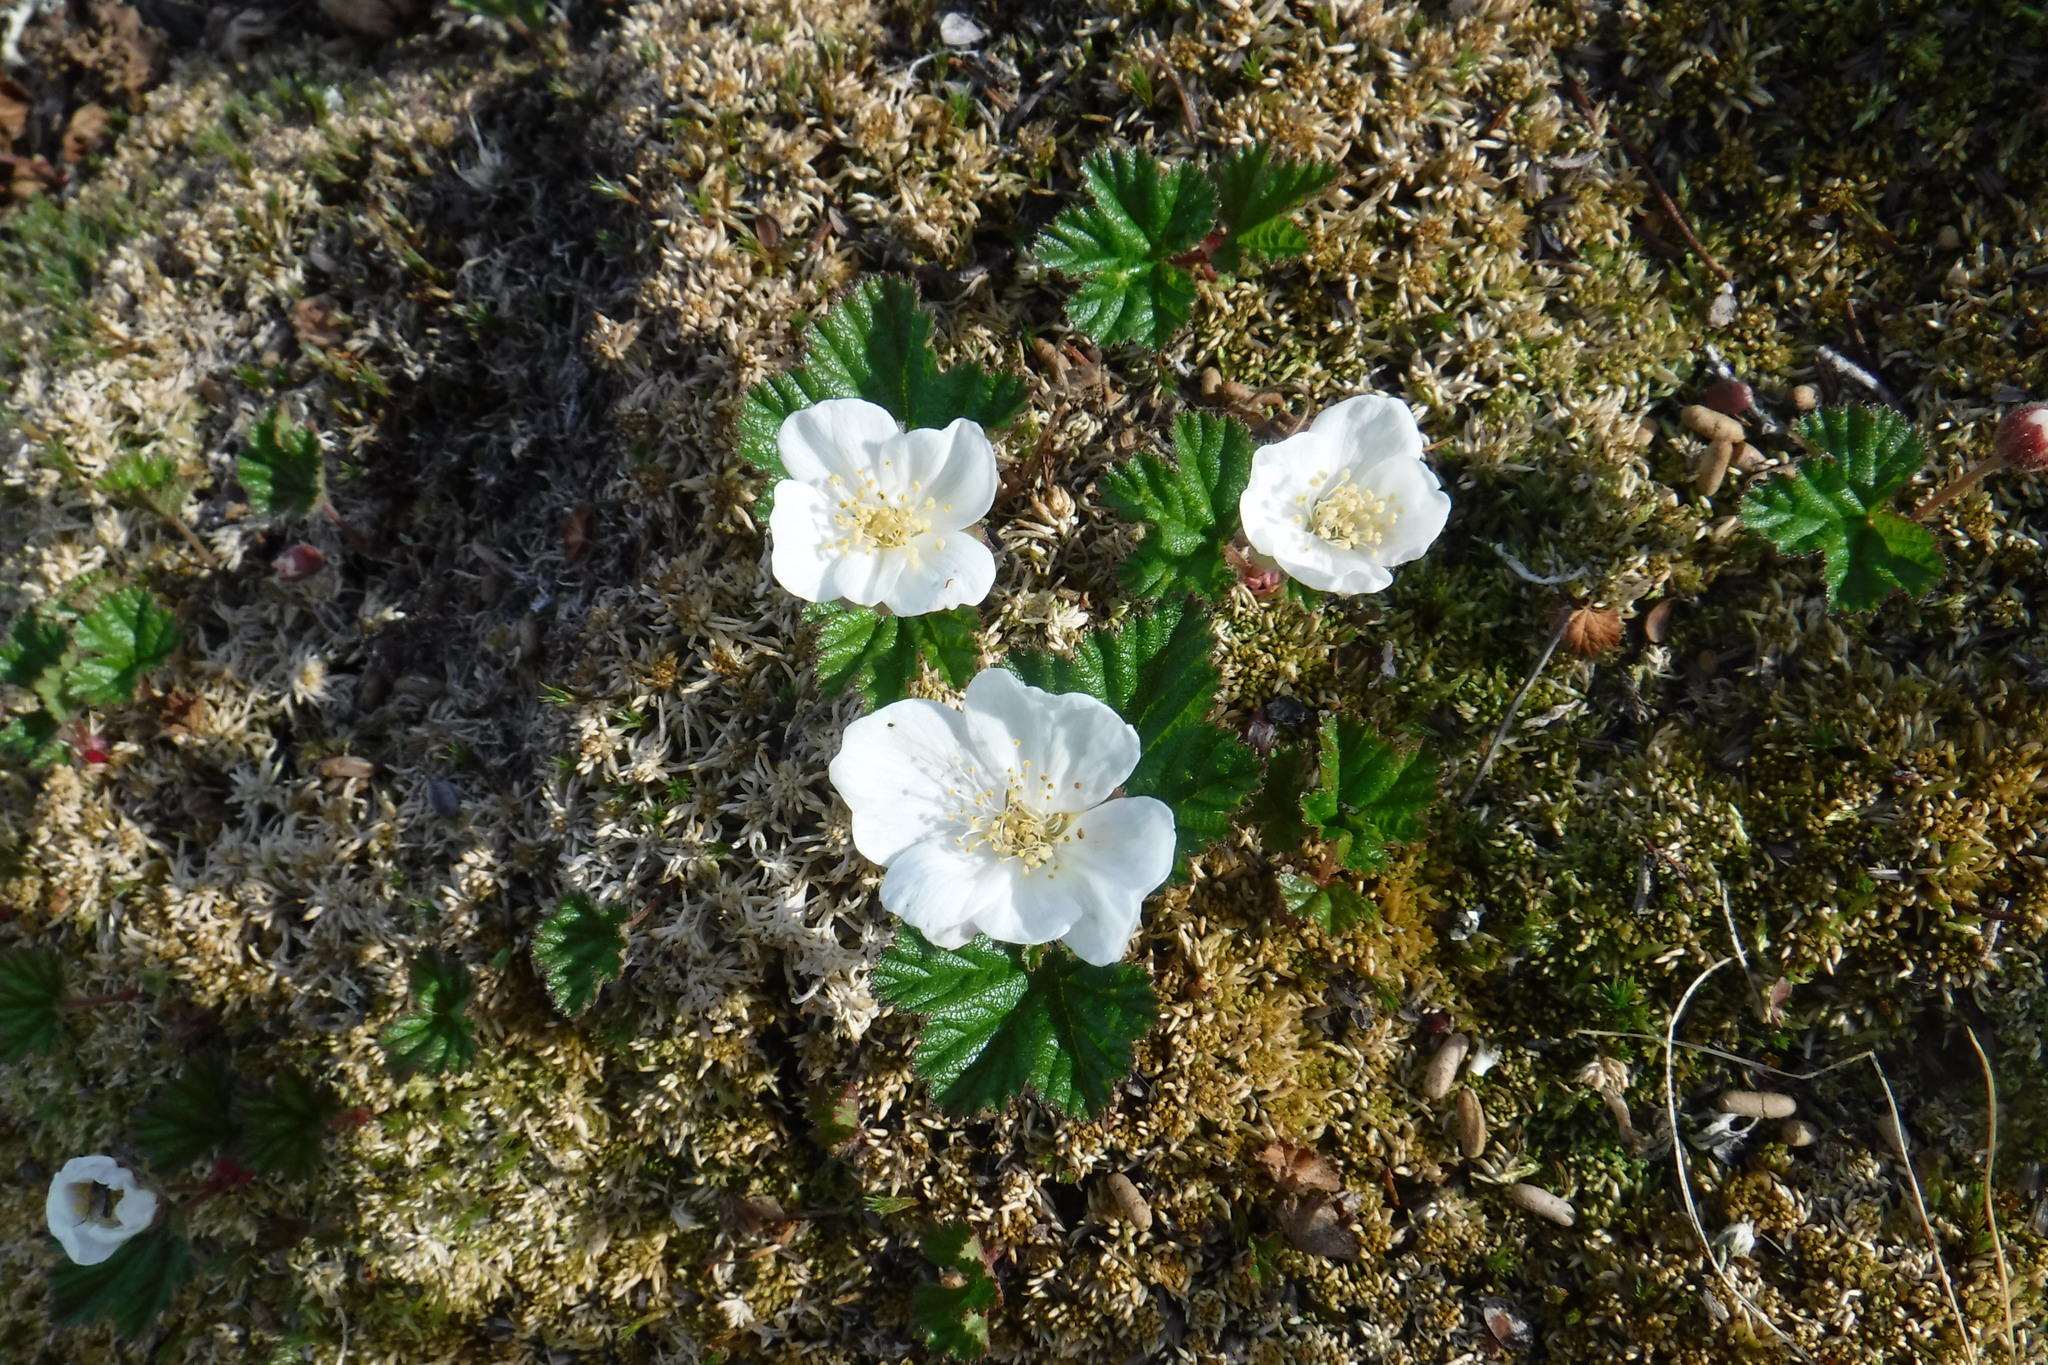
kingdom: Plantae
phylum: Tracheophyta
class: Magnoliopsida
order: Rosales
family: Rosaceae
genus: Rubus
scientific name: Rubus chamaemorus
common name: Cloudberry
